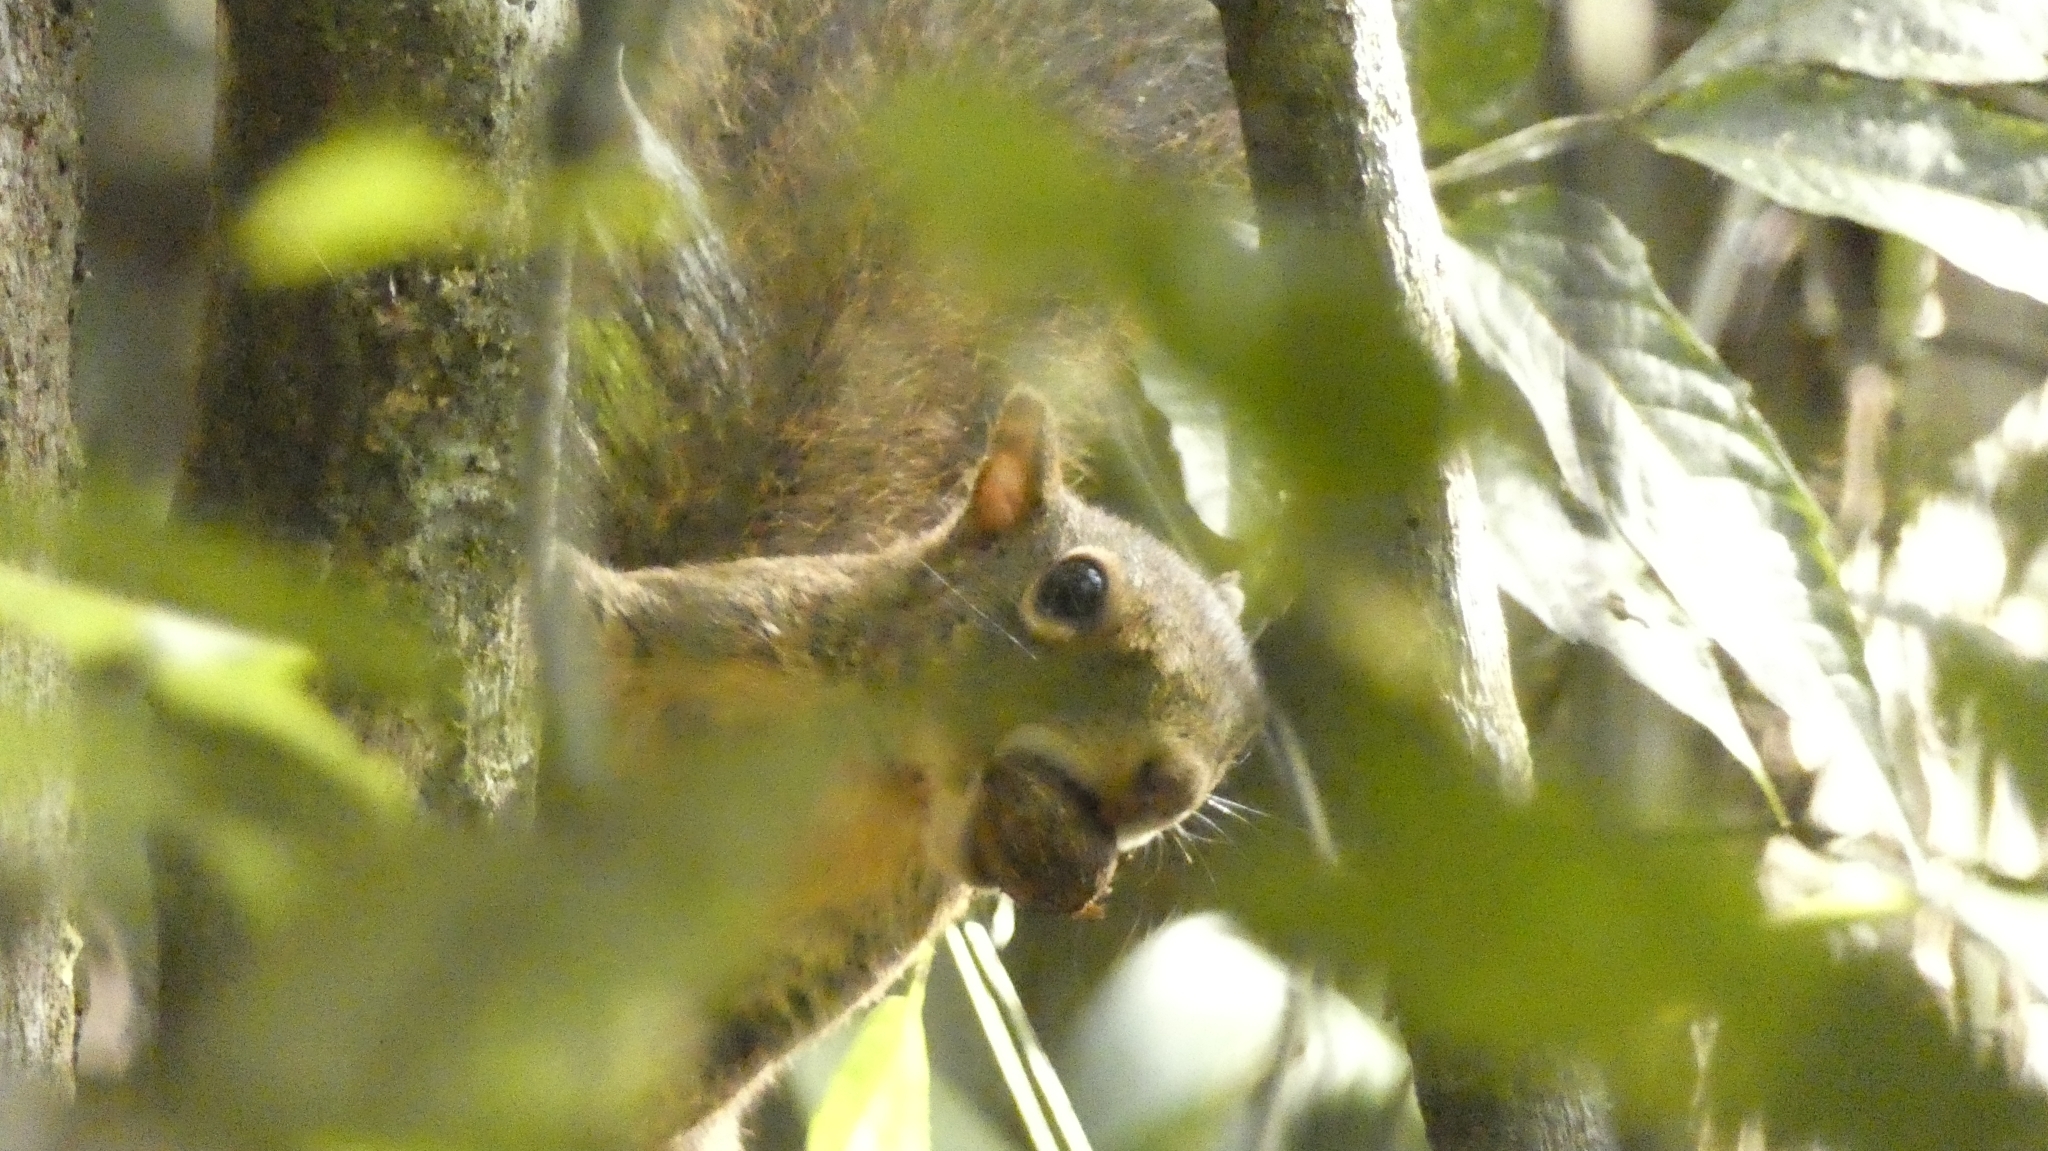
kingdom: Animalia
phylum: Chordata
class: Mammalia
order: Rodentia
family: Sciuridae
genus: Sciurus
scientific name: Sciurus aestuans
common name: Guianan squirrel
